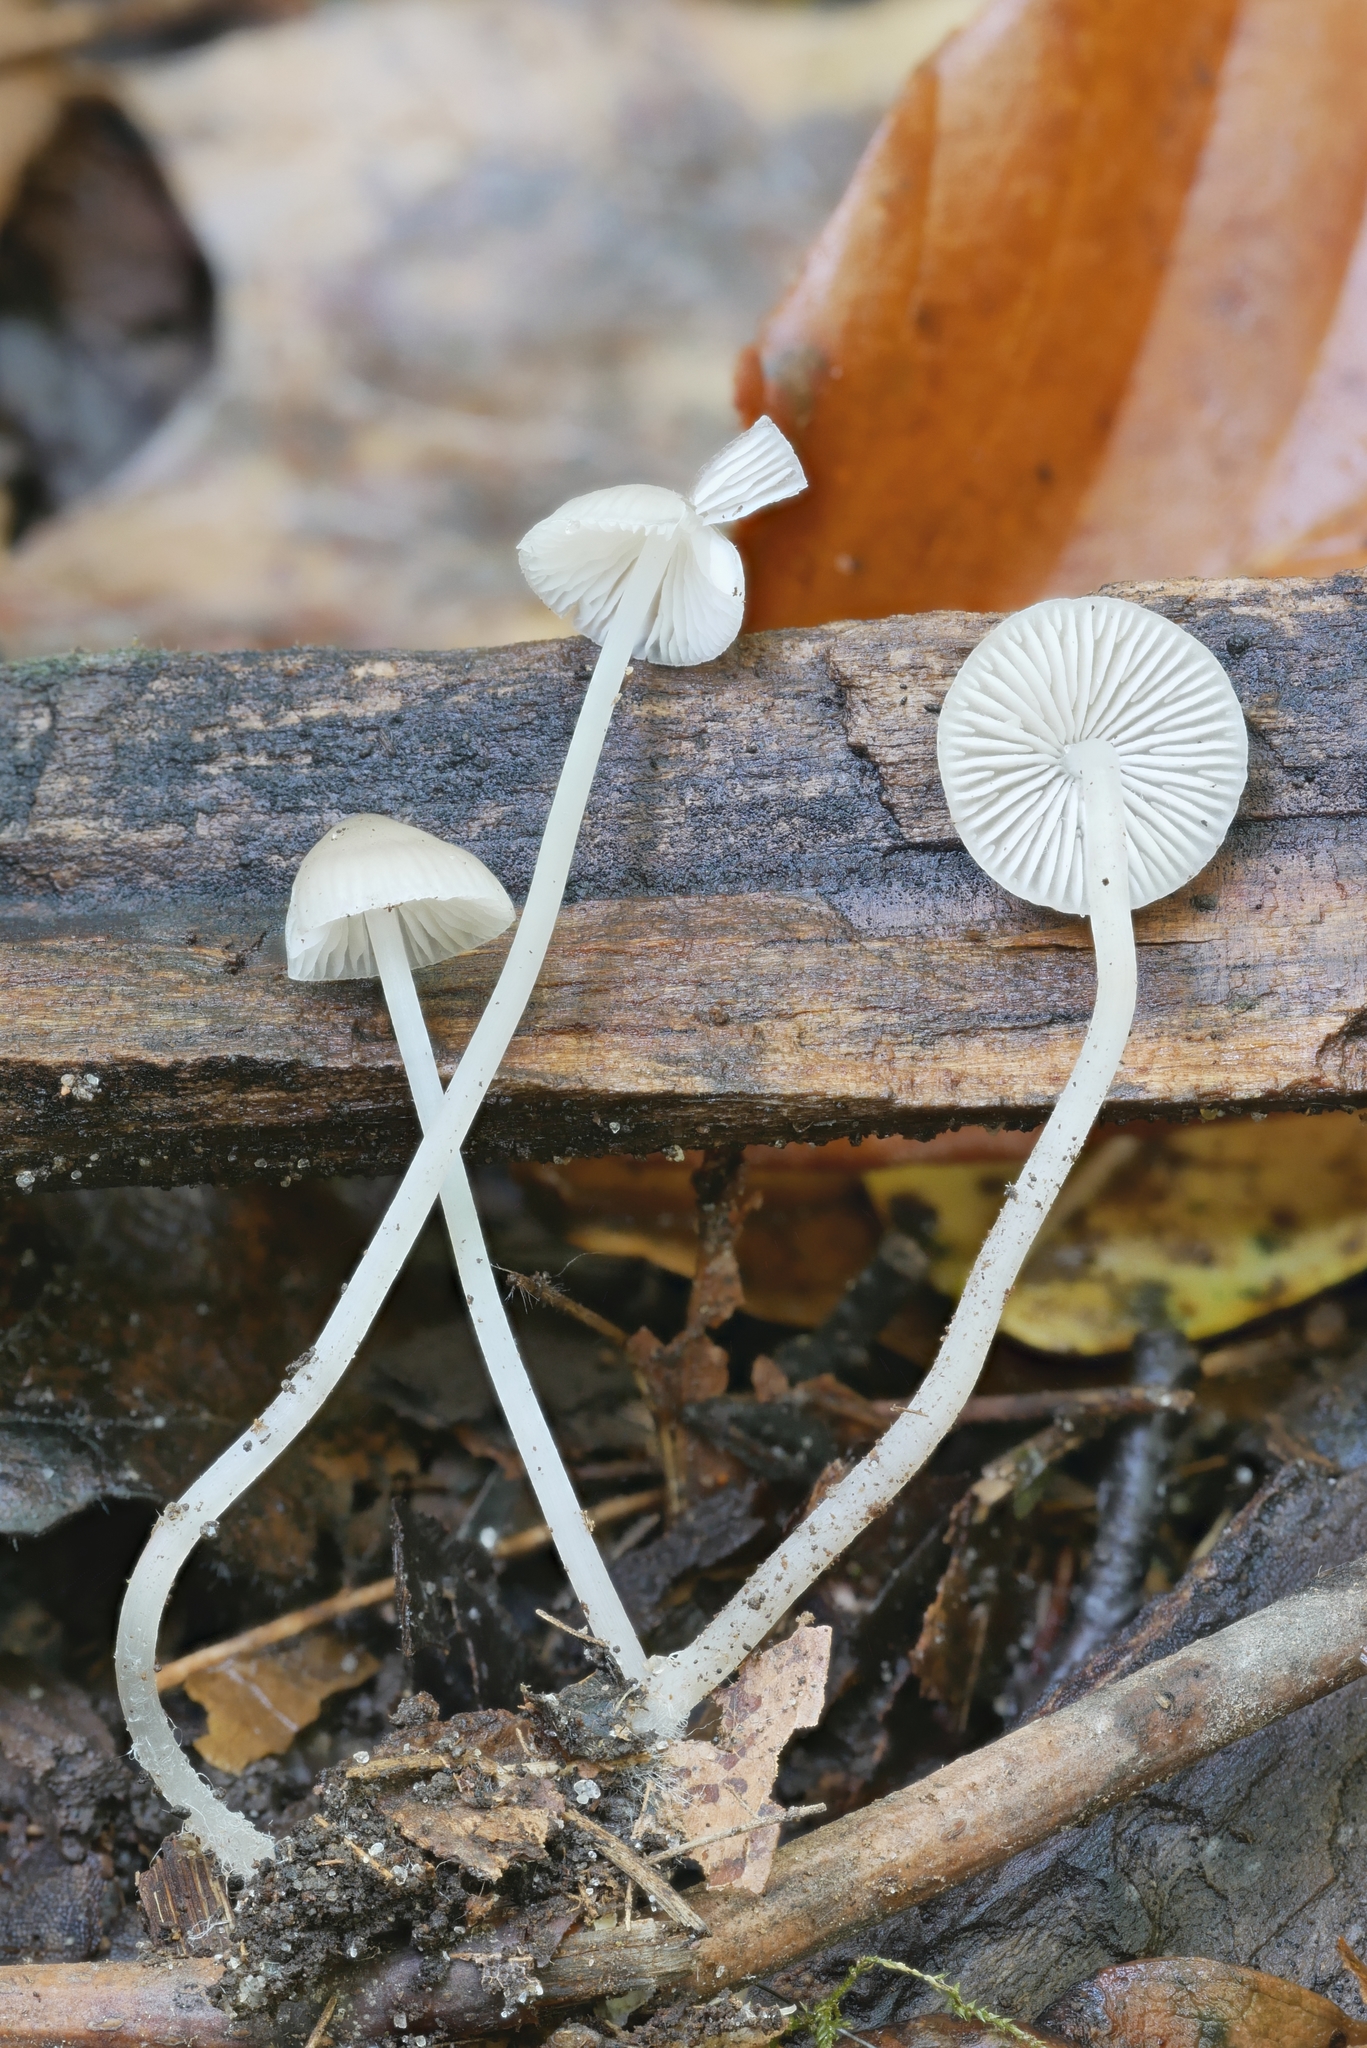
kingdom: Fungi
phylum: Basidiomycota
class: Agaricomycetes
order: Agaricales
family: Mycenaceae
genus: Mycena
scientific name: Mycena vitilis
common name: Snapping bonnet
